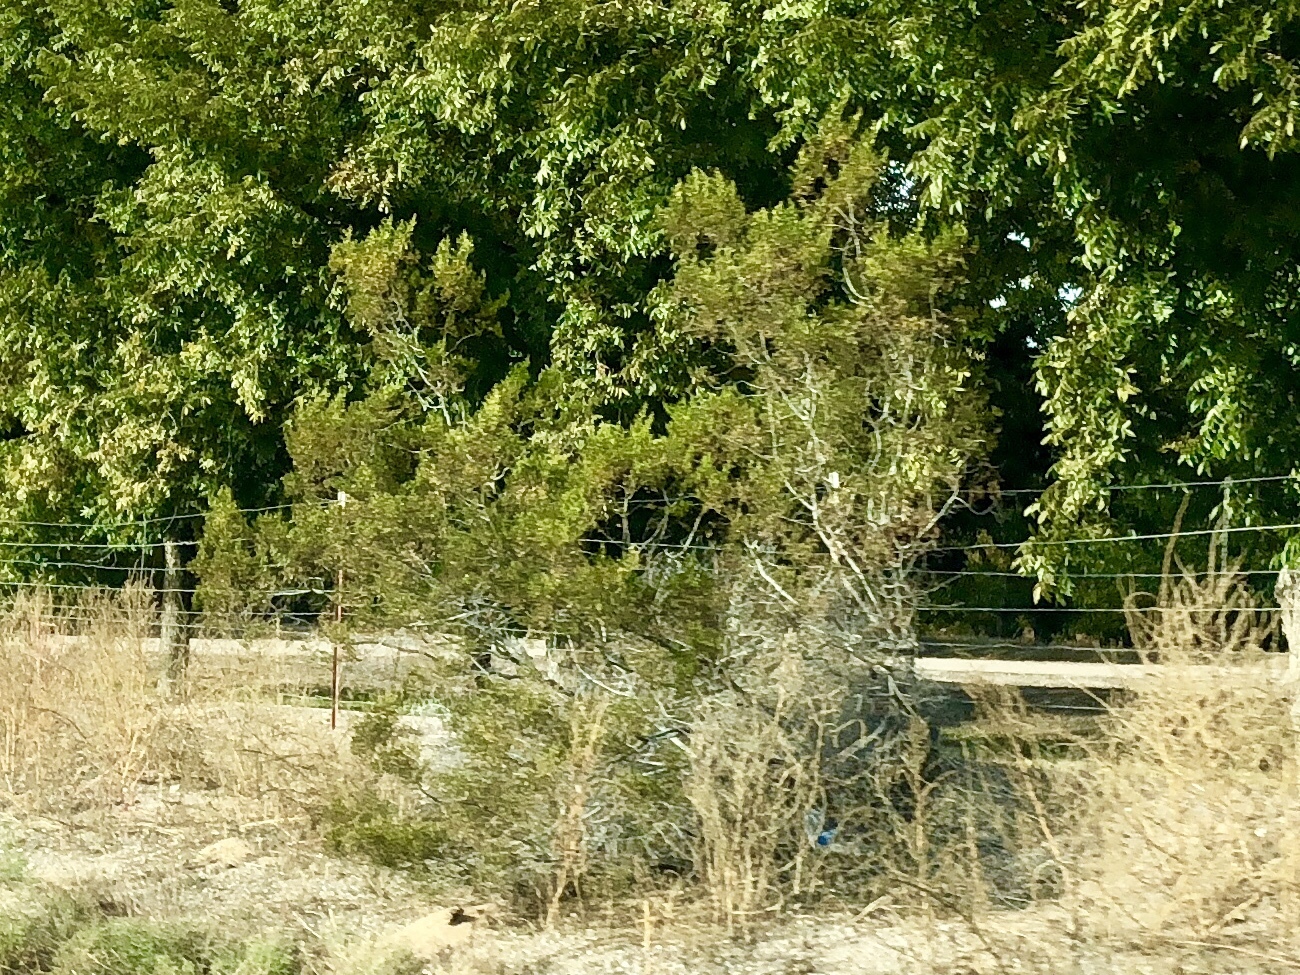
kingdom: Plantae
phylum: Tracheophyta
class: Magnoliopsida
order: Zygophyllales
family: Zygophyllaceae
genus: Larrea
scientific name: Larrea tridentata
